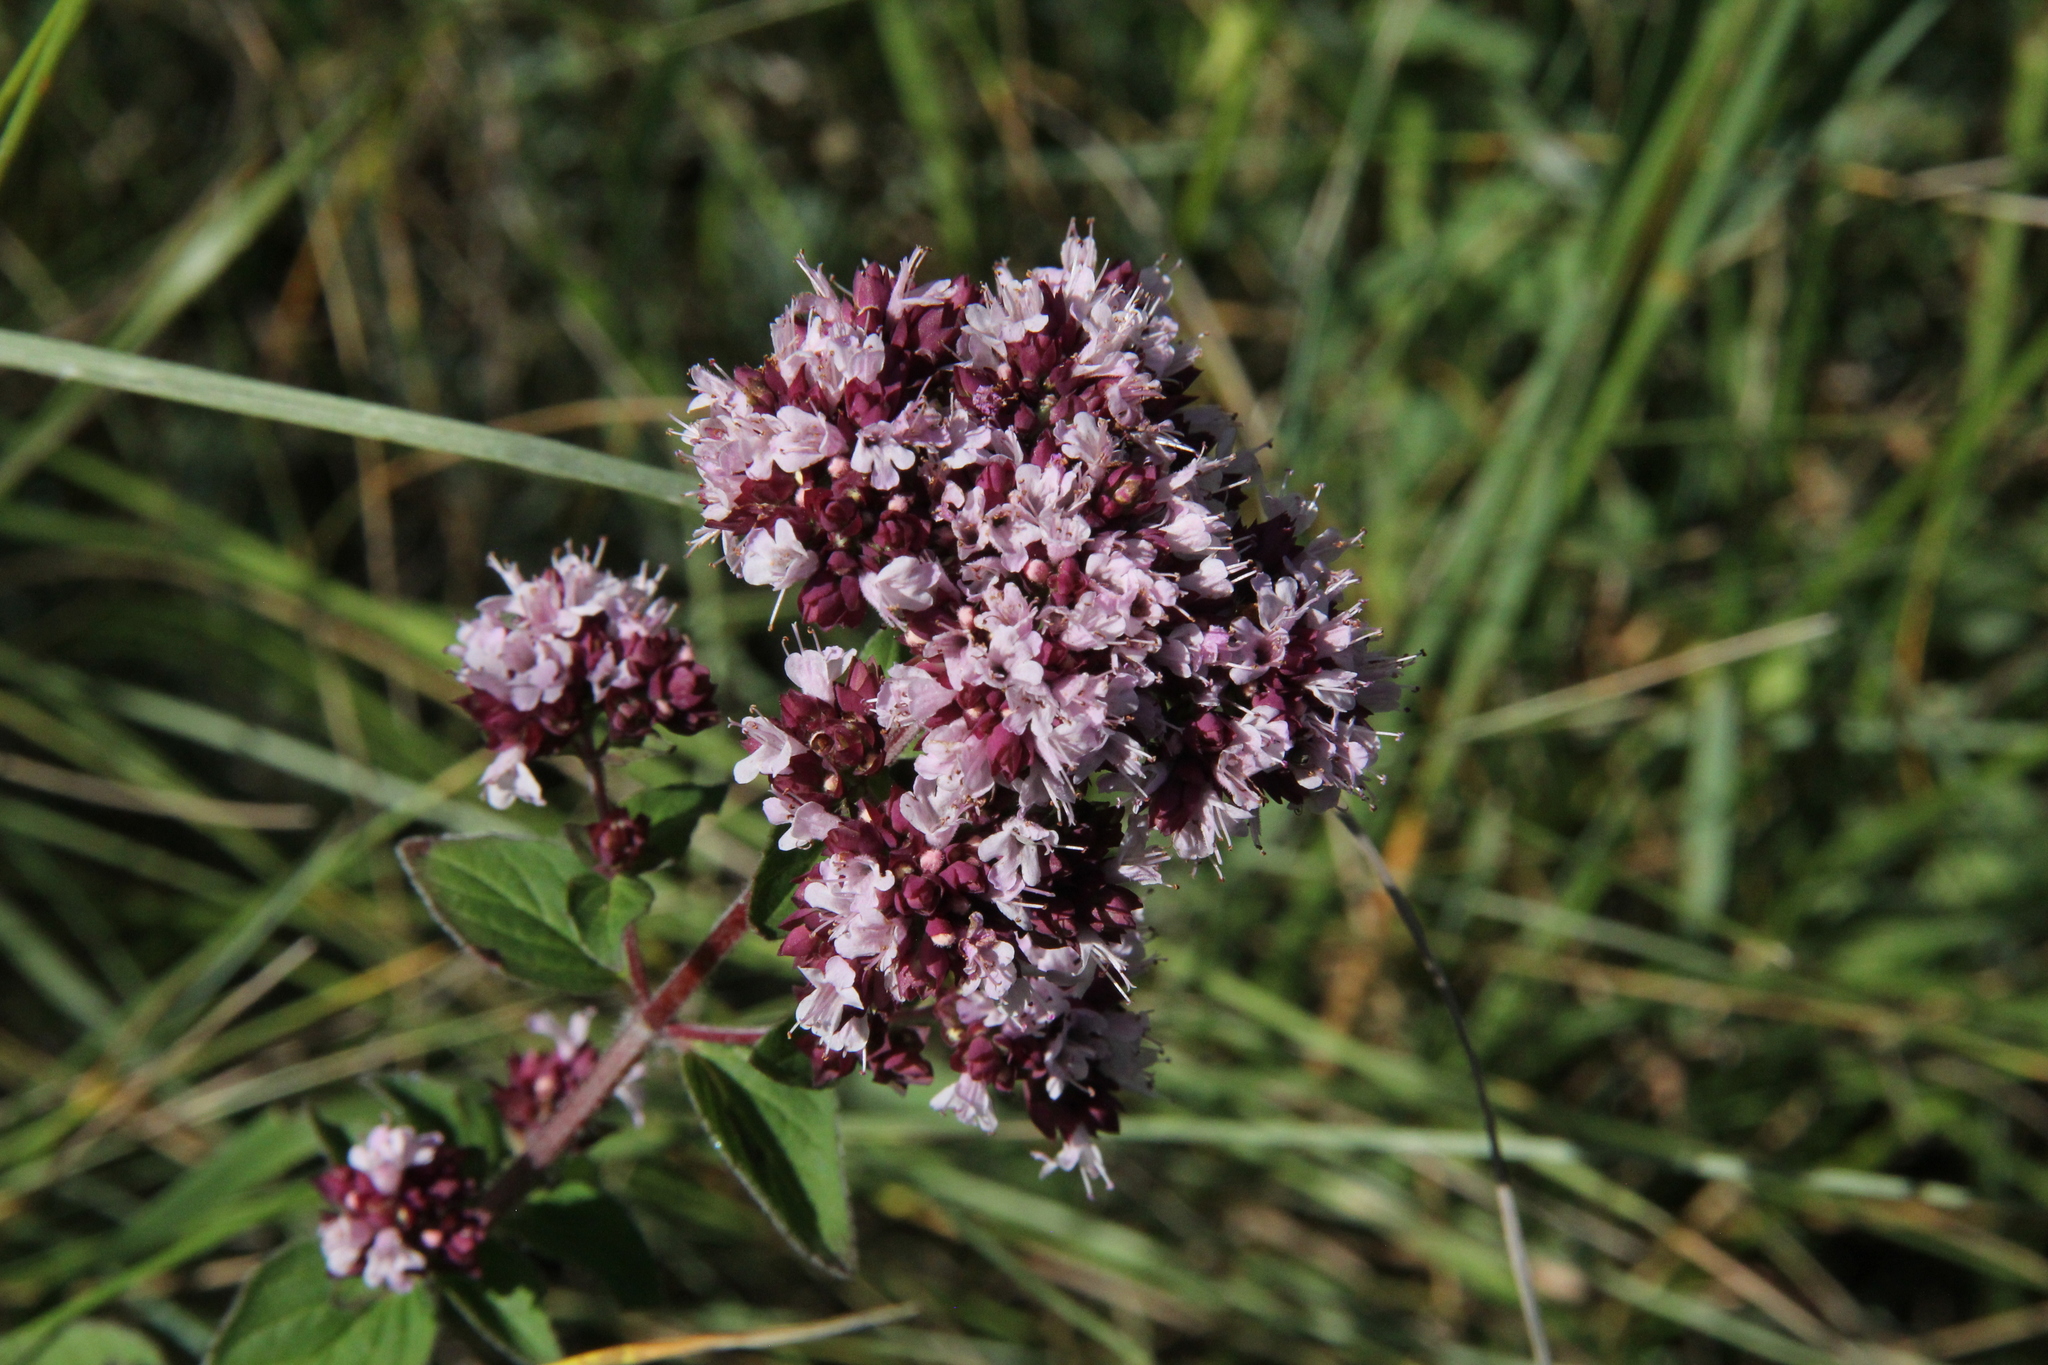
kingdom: Plantae
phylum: Tracheophyta
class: Magnoliopsida
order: Lamiales
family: Lamiaceae
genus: Origanum
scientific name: Origanum vulgare
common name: Wild marjoram
